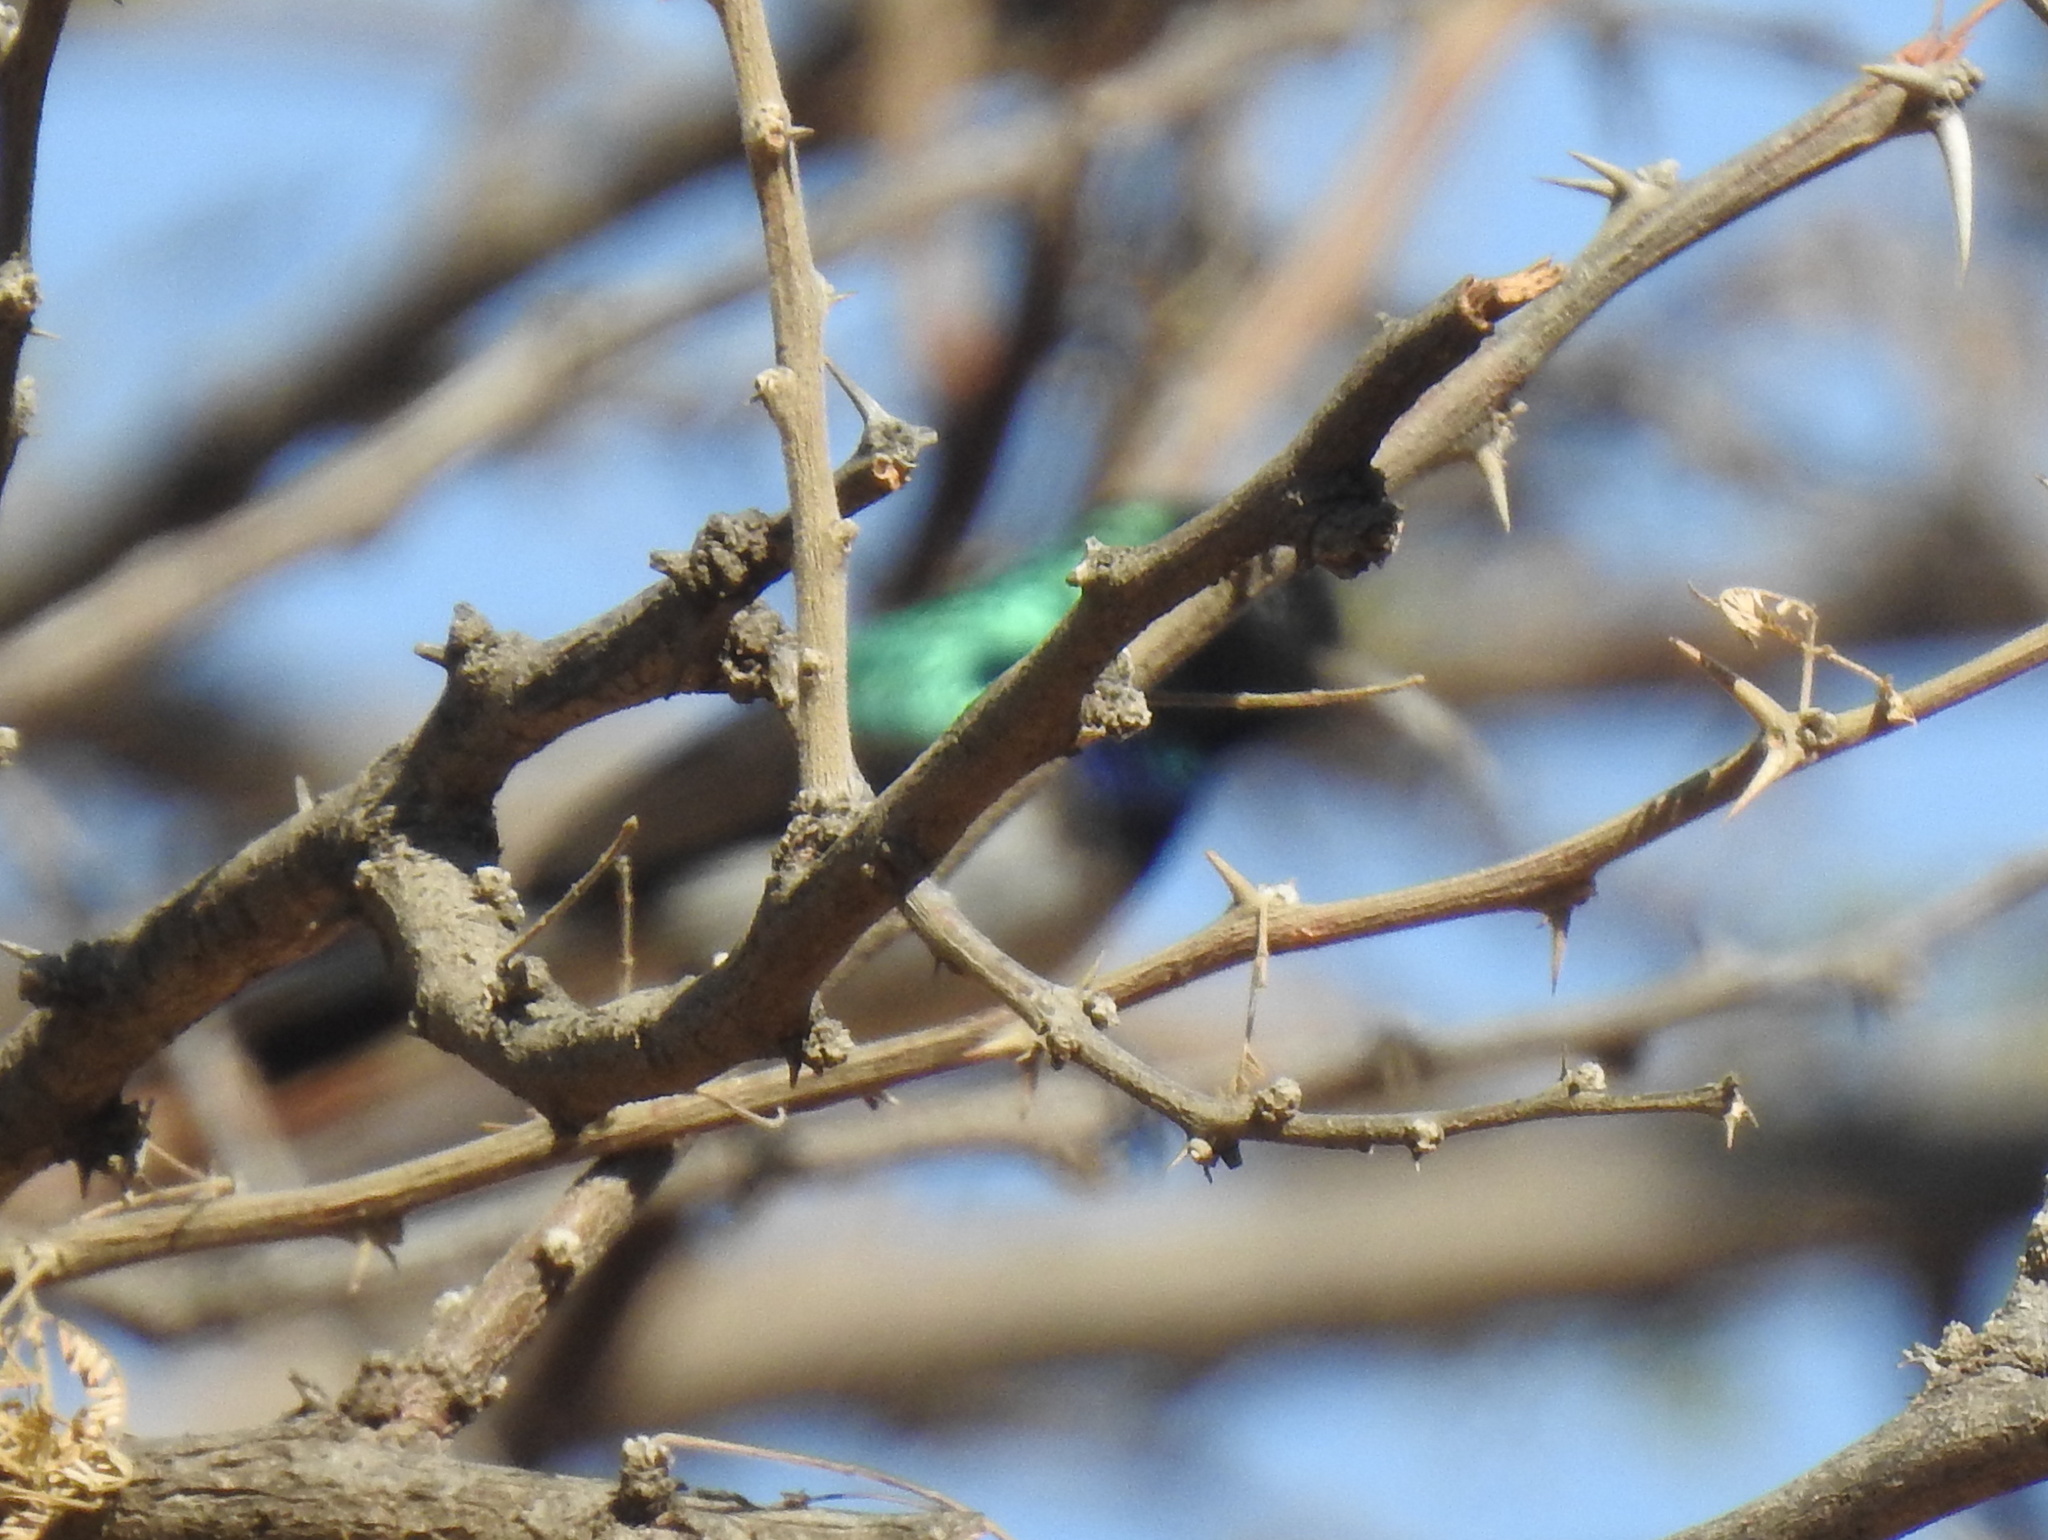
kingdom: Animalia
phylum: Chordata
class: Aves
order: Passeriformes
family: Nectariniidae
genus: Cinnyris
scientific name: Cinnyris talatala
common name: White-bellied sunbird
